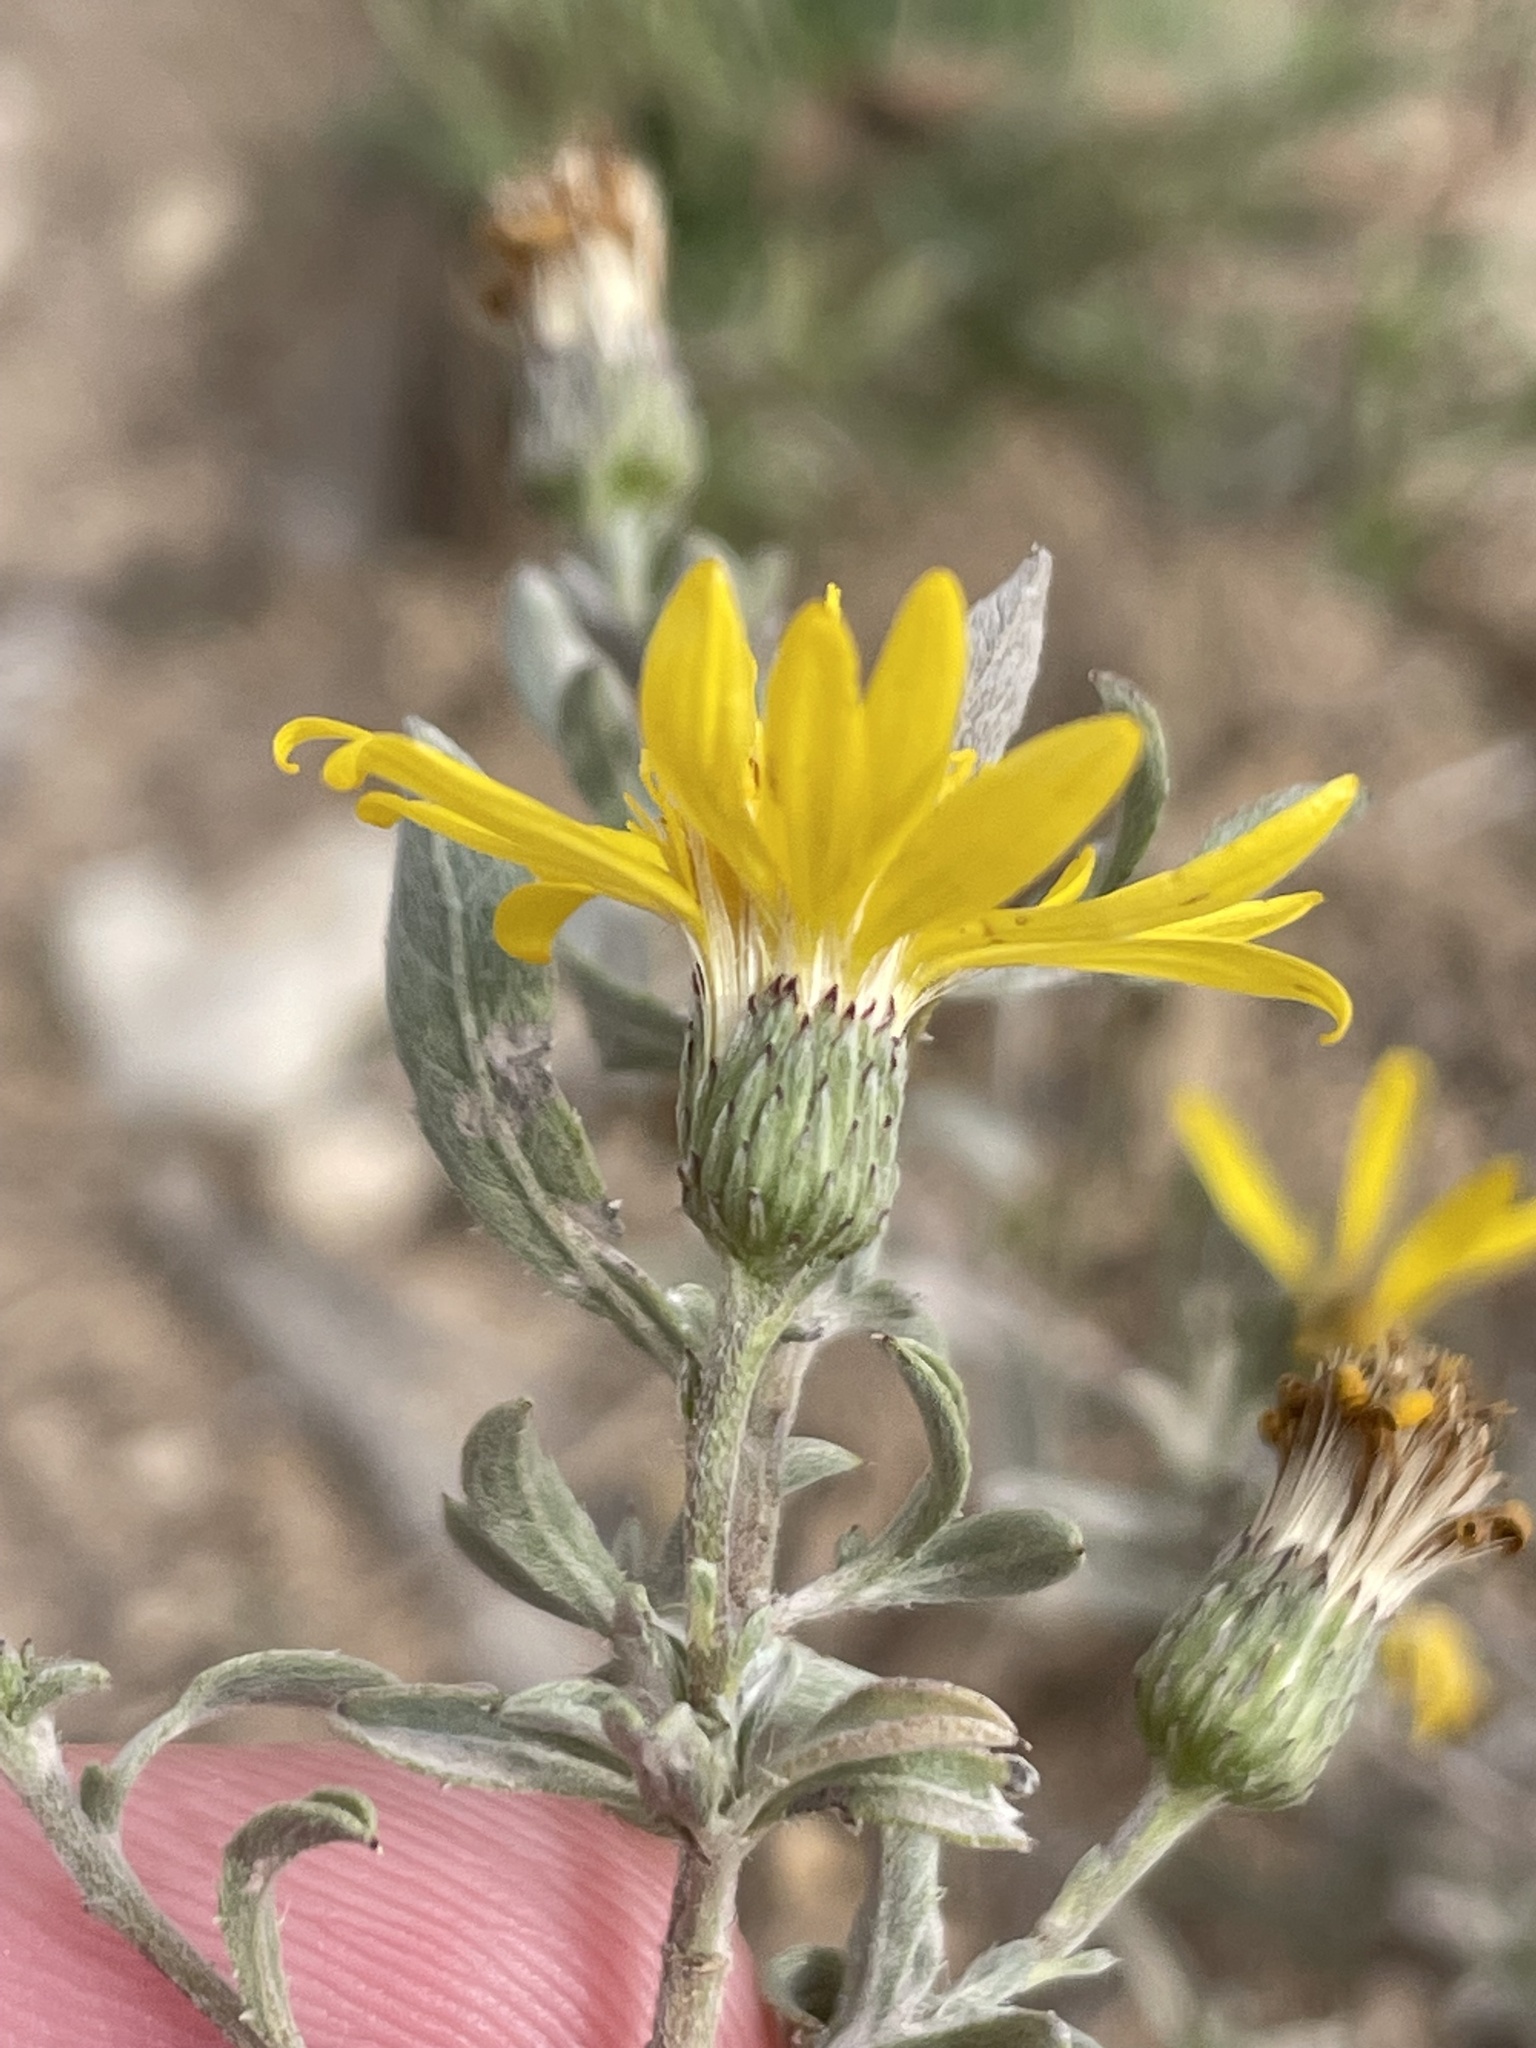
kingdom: Plantae
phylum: Tracheophyta
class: Magnoliopsida
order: Asterales
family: Asteraceae
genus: Heterotheca
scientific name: Heterotheca canescens
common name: Hoary golden-aster
